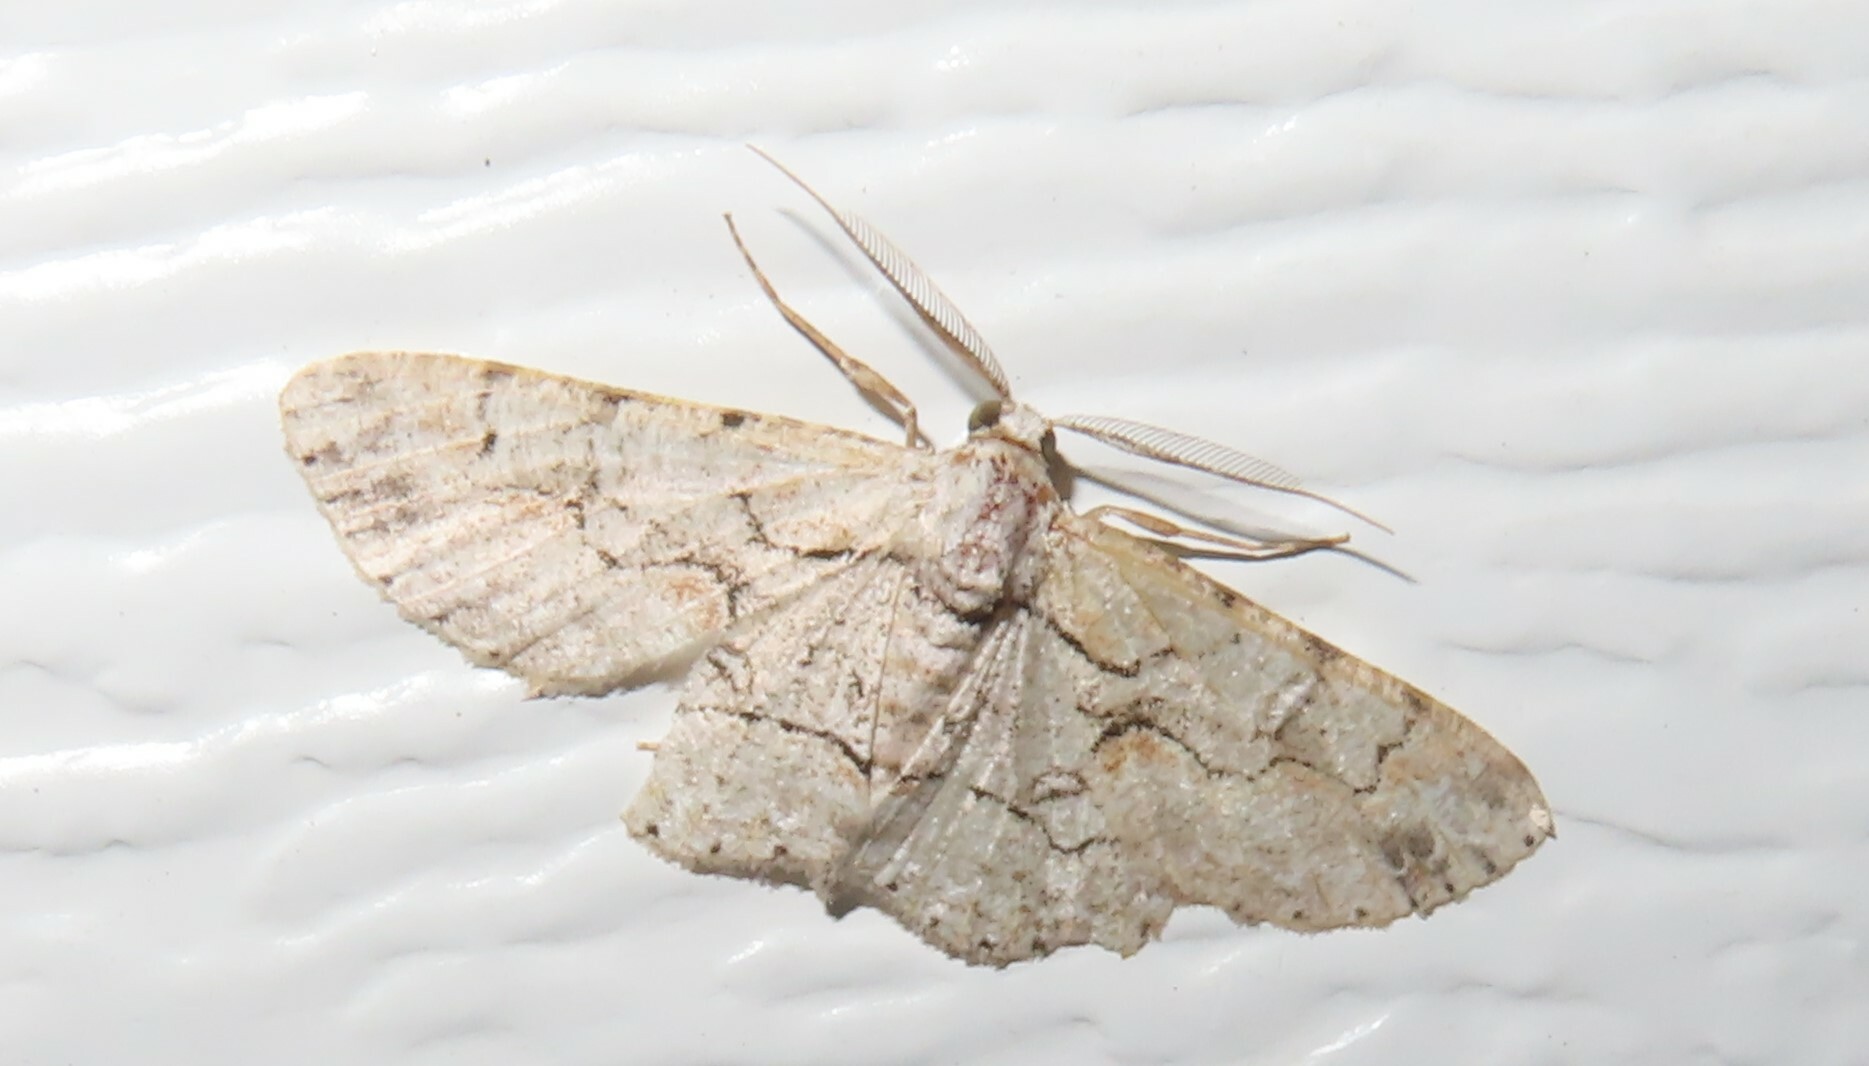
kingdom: Animalia
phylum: Arthropoda
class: Insecta
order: Lepidoptera
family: Geometridae
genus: Iridopsis
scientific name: Iridopsis larvaria
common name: Bent-line gray
